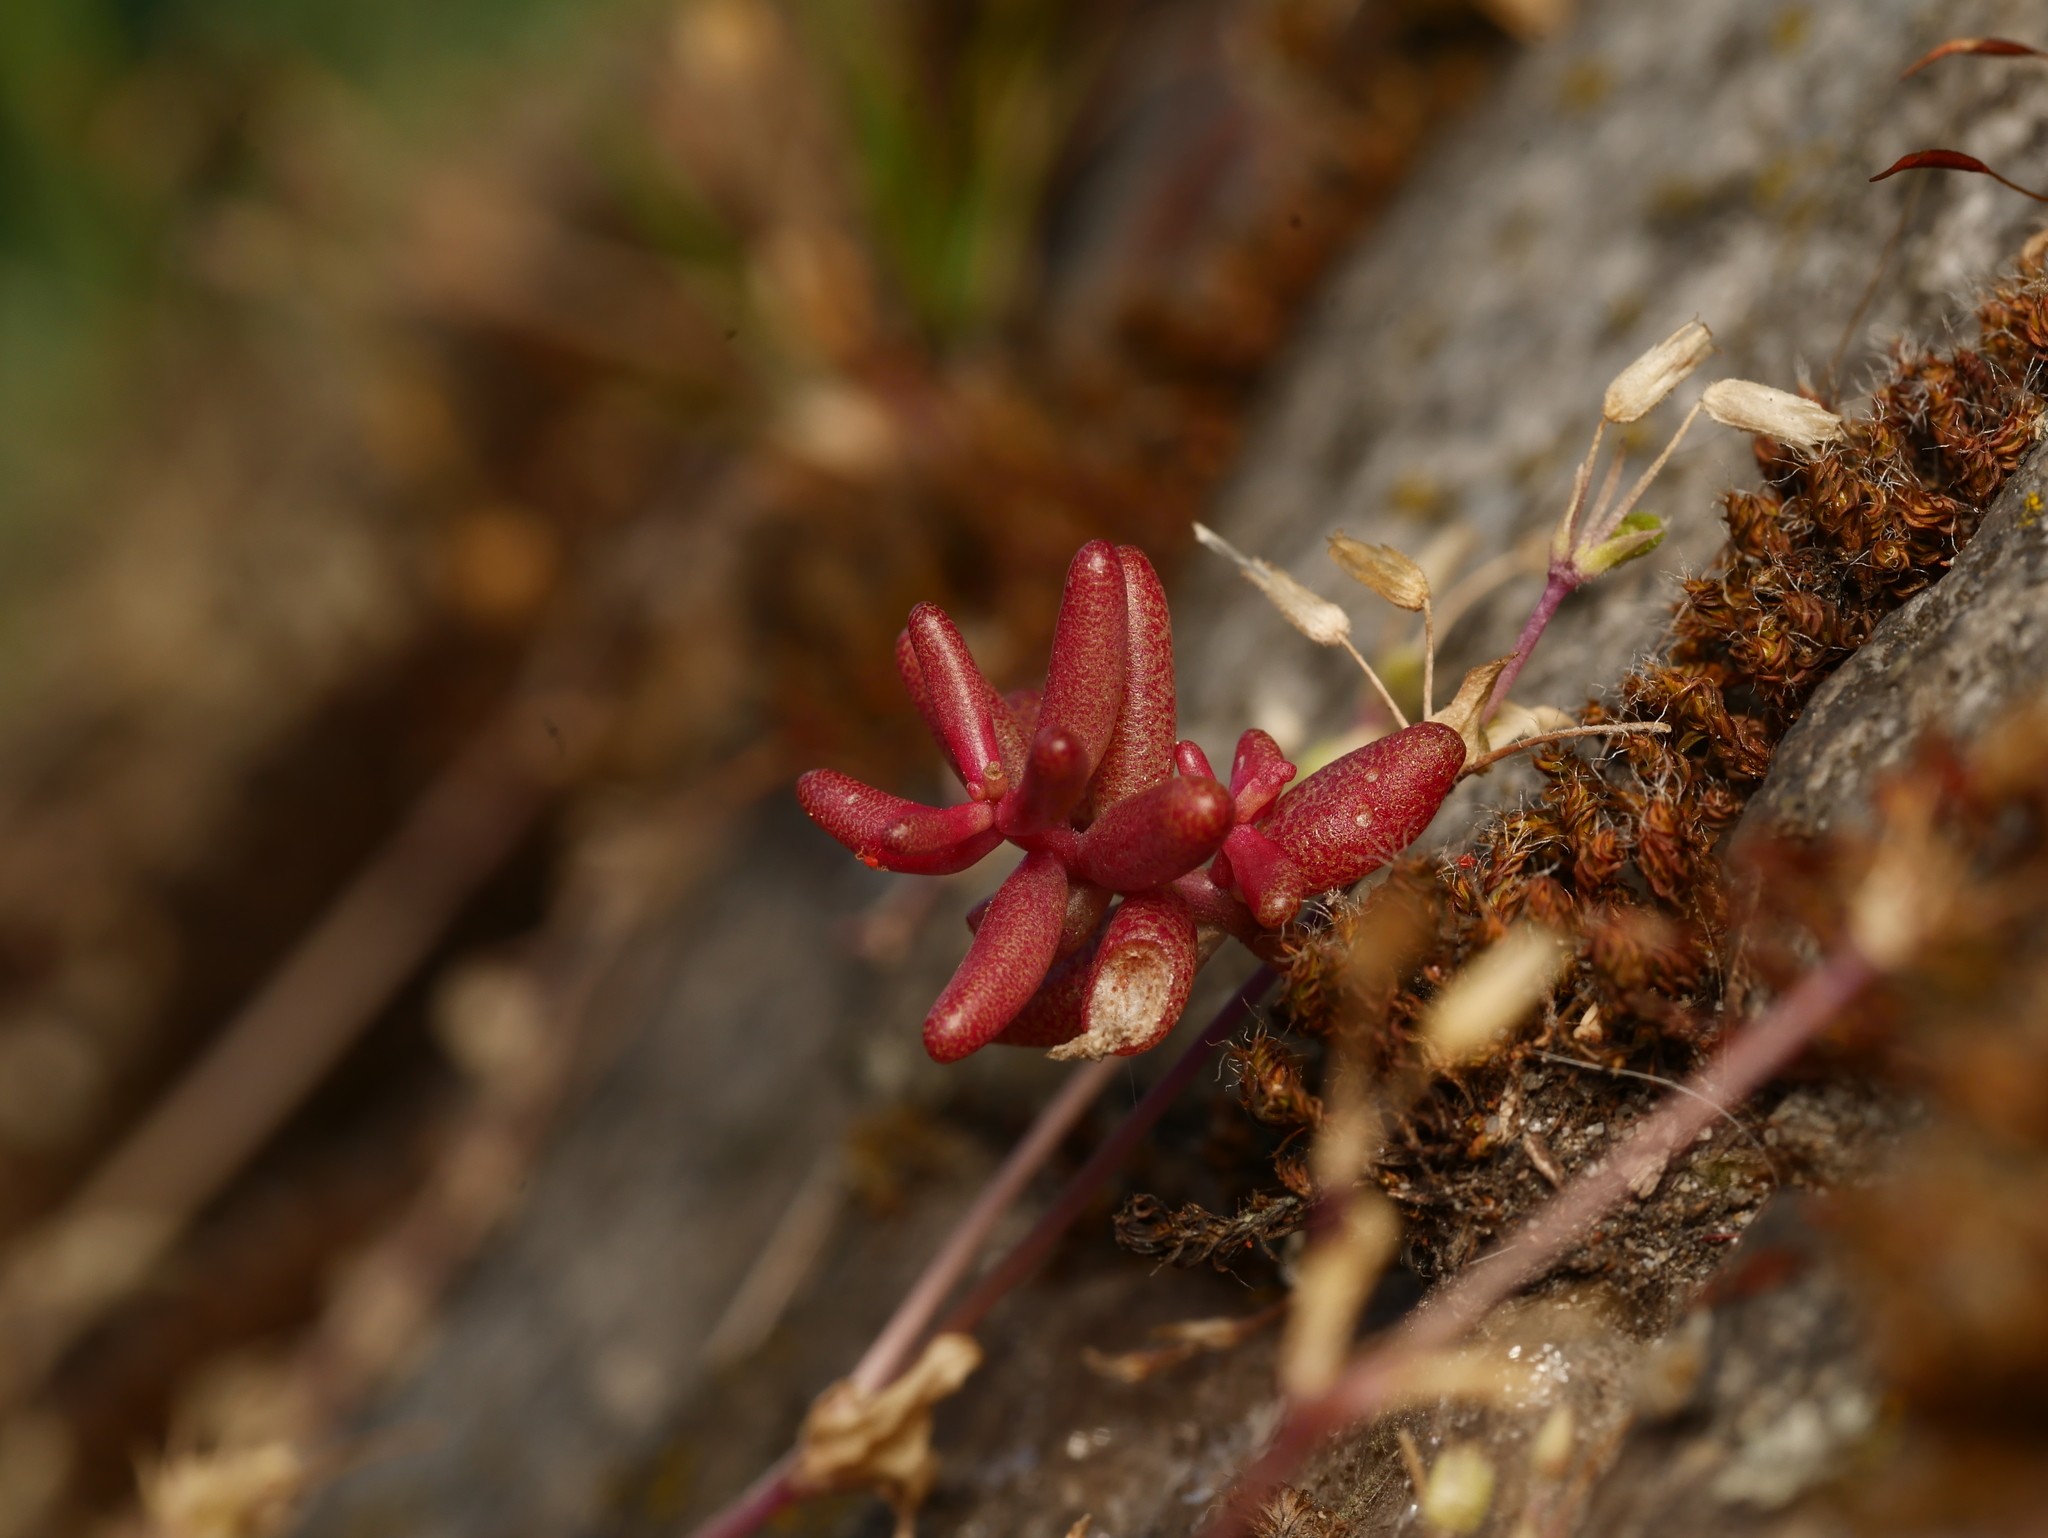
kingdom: Plantae
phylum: Tracheophyta
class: Magnoliopsida
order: Saxifragales
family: Crassulaceae
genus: Sedum
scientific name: Sedum album
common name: White stonecrop
